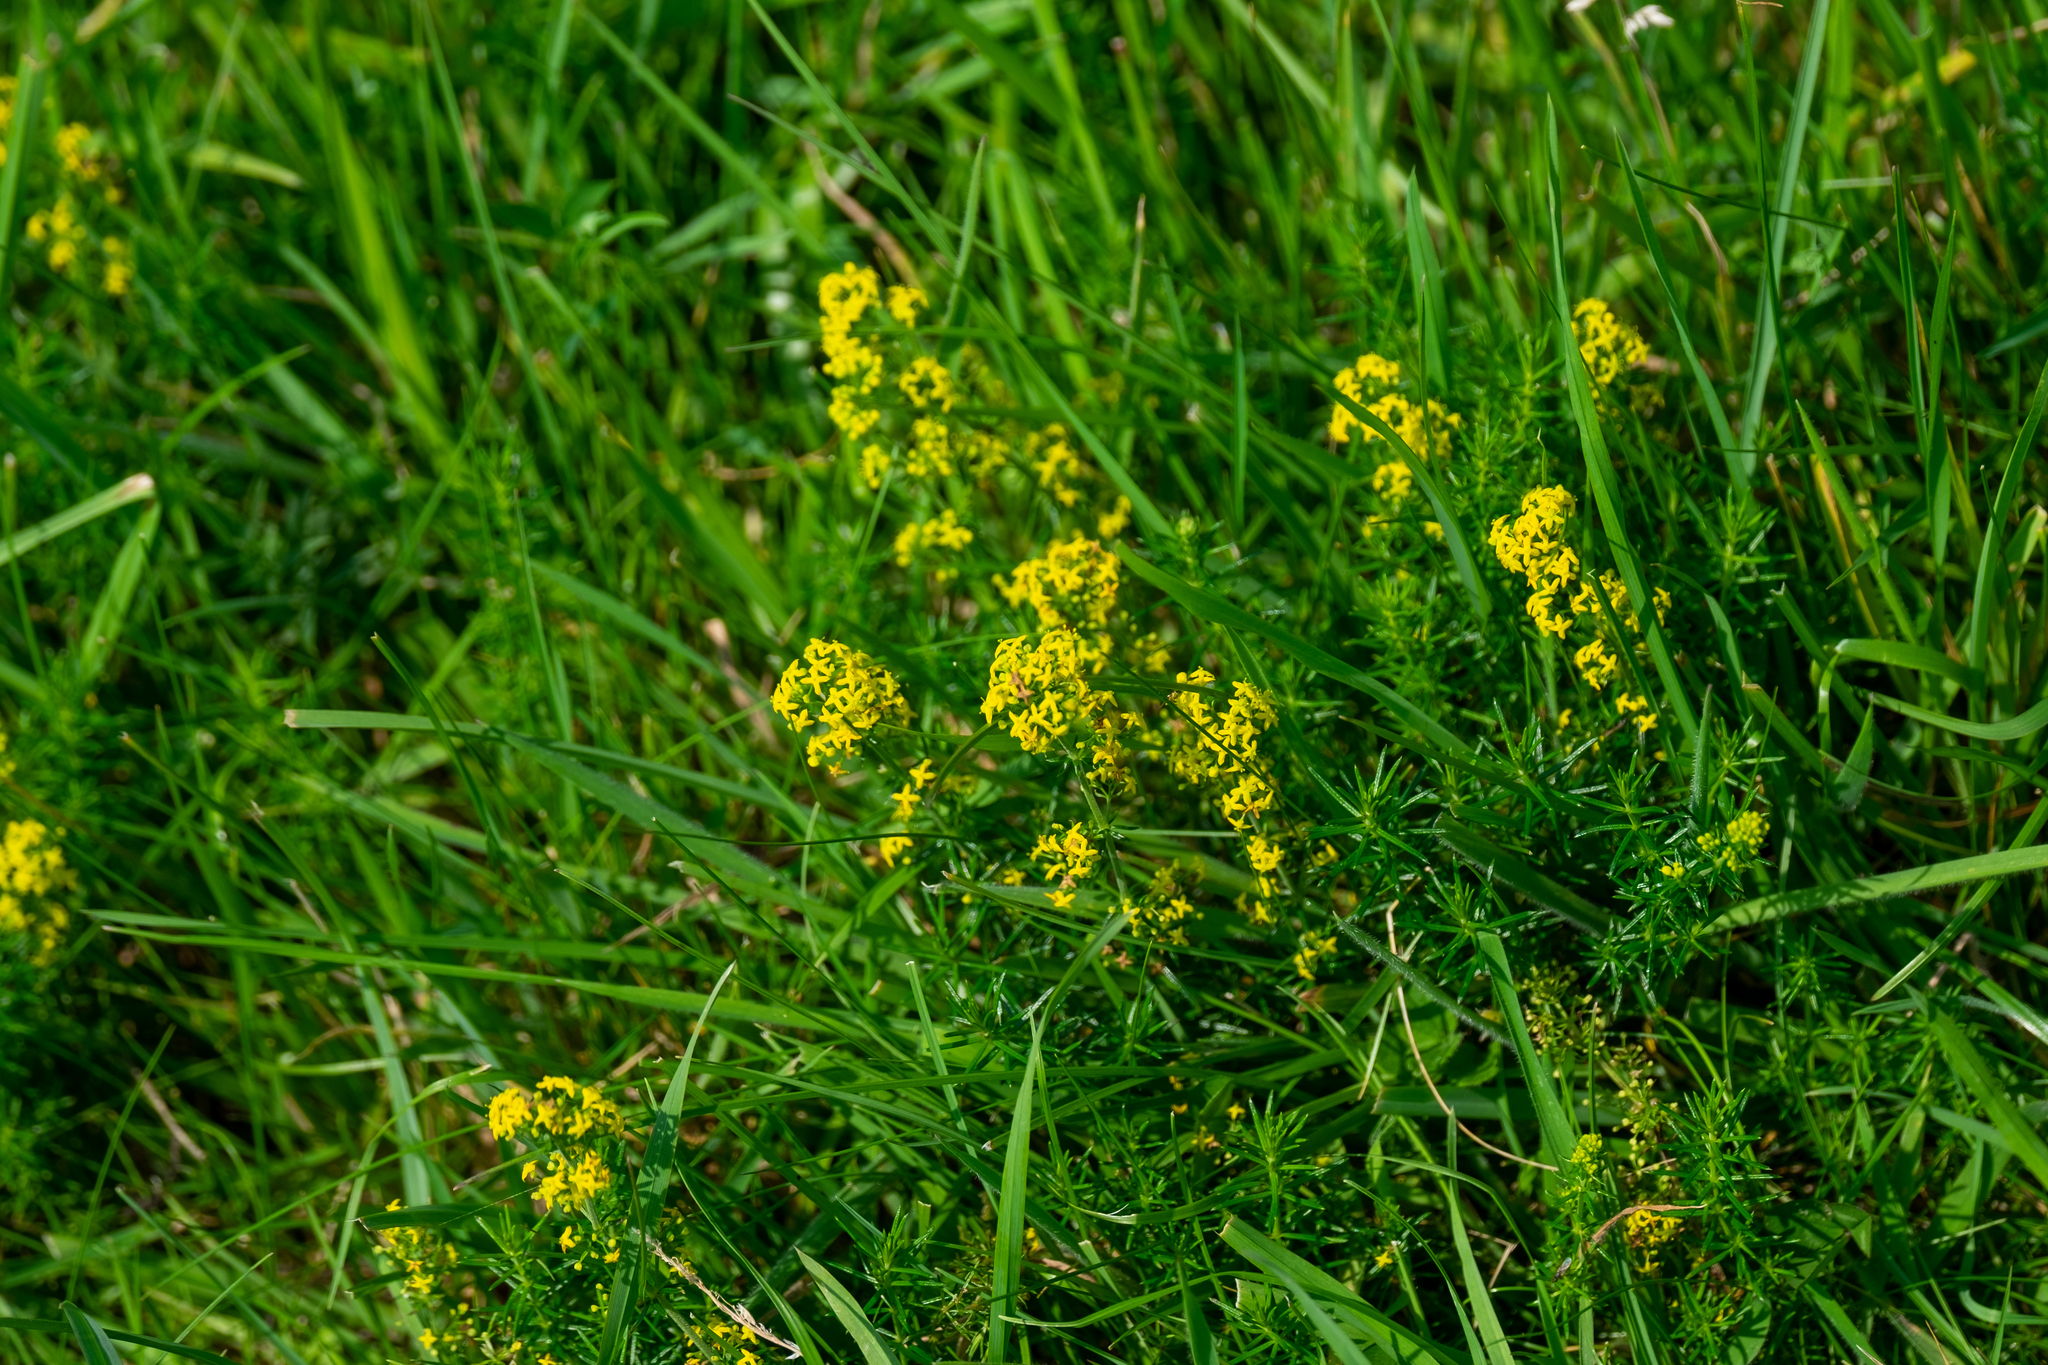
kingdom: Plantae
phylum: Tracheophyta
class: Magnoliopsida
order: Gentianales
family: Rubiaceae
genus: Galium
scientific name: Galium verum
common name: Lady's bedstraw
